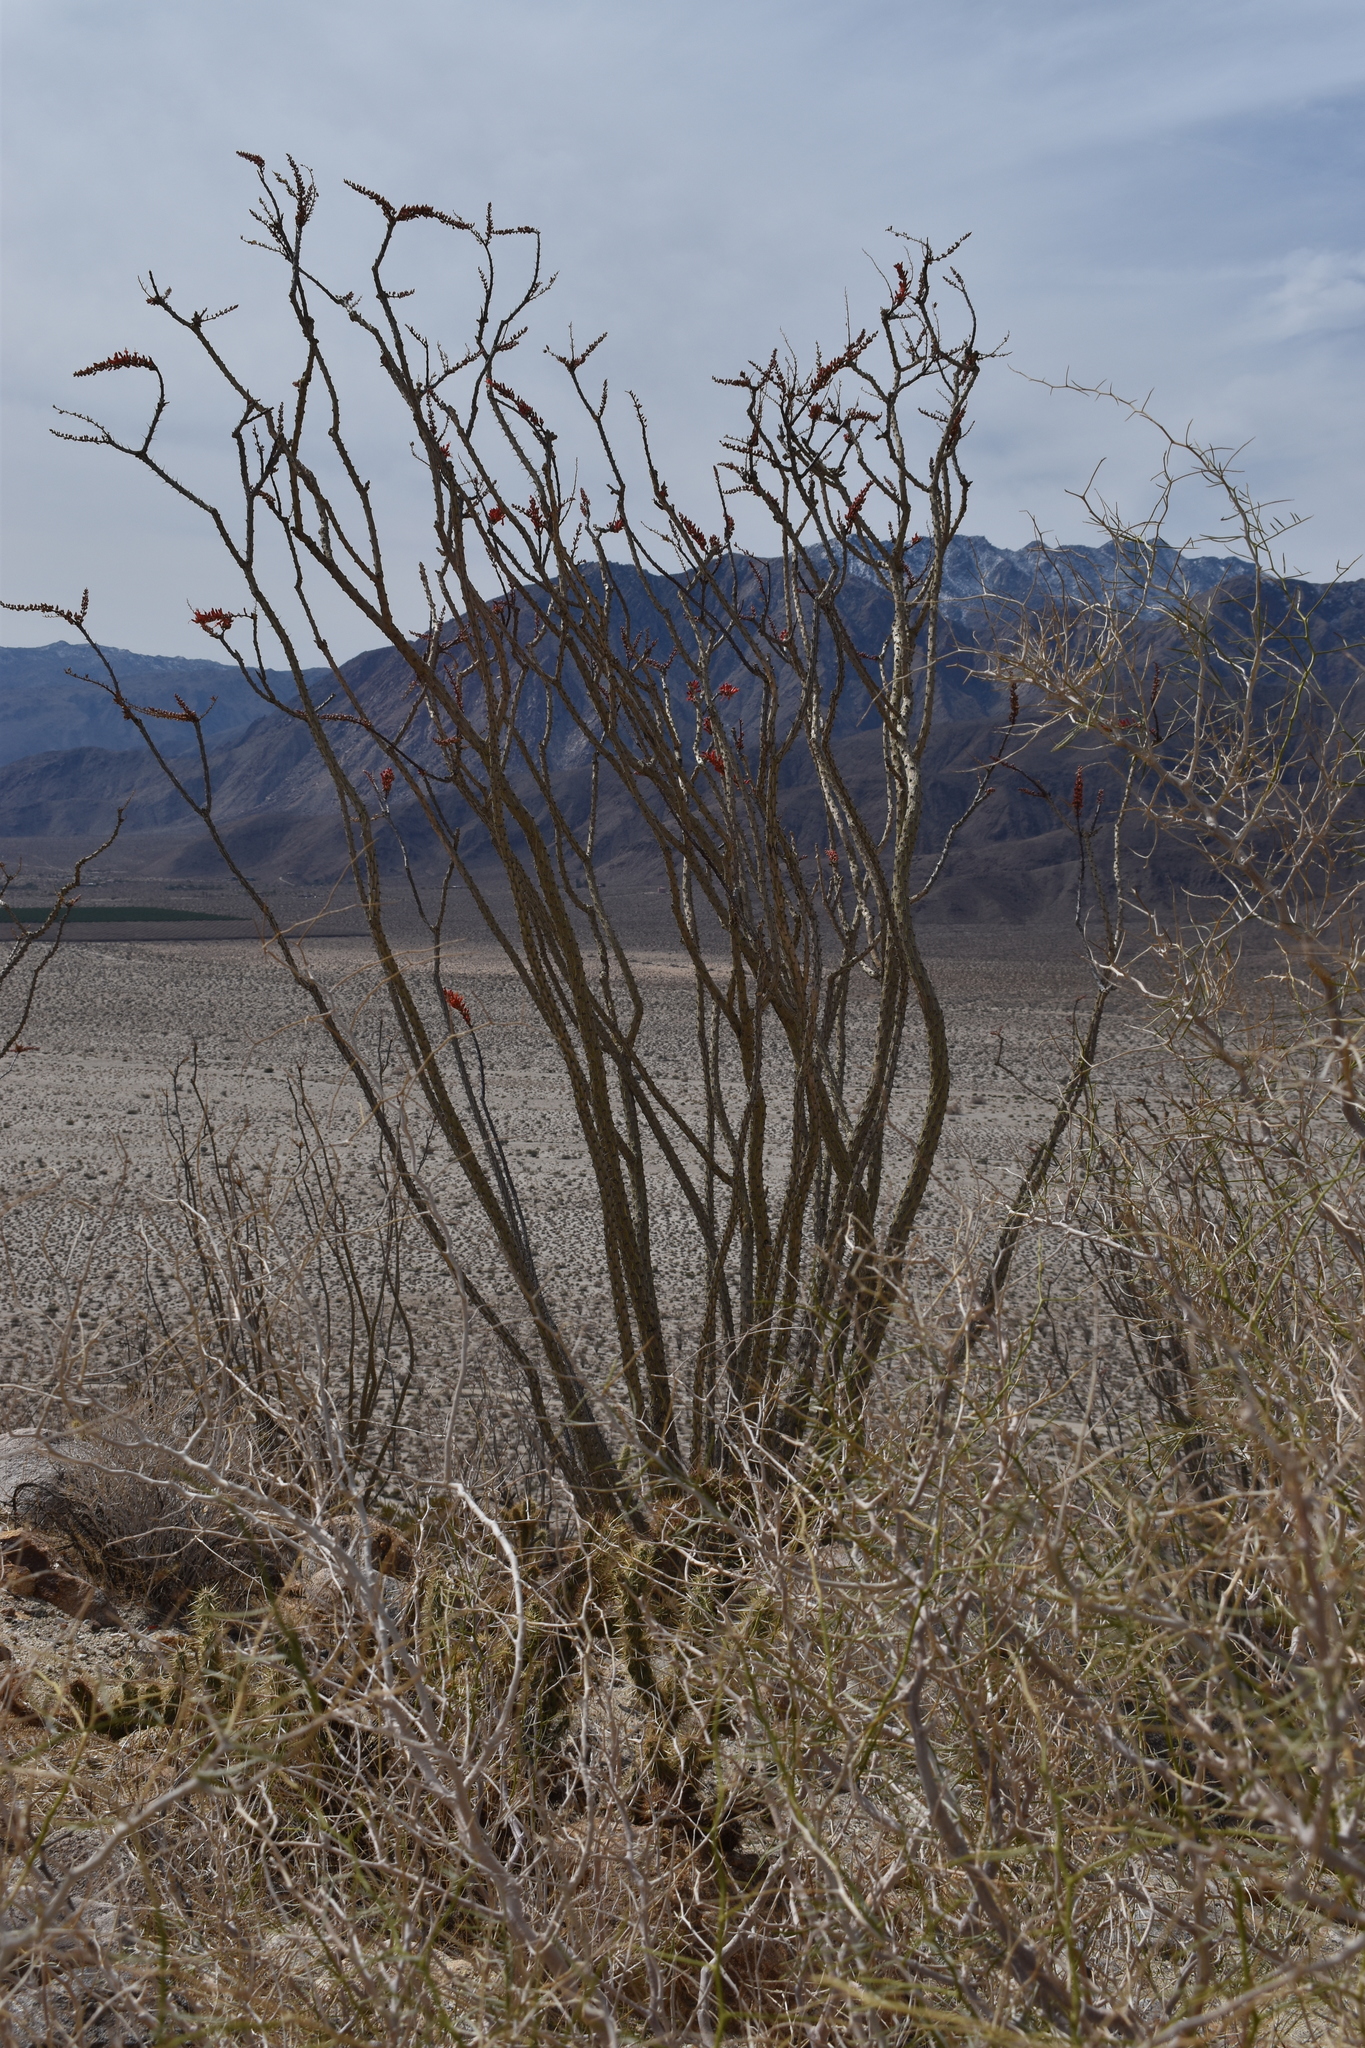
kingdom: Plantae
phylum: Tracheophyta
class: Magnoliopsida
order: Ericales
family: Fouquieriaceae
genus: Fouquieria
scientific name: Fouquieria splendens
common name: Vine-cactus
